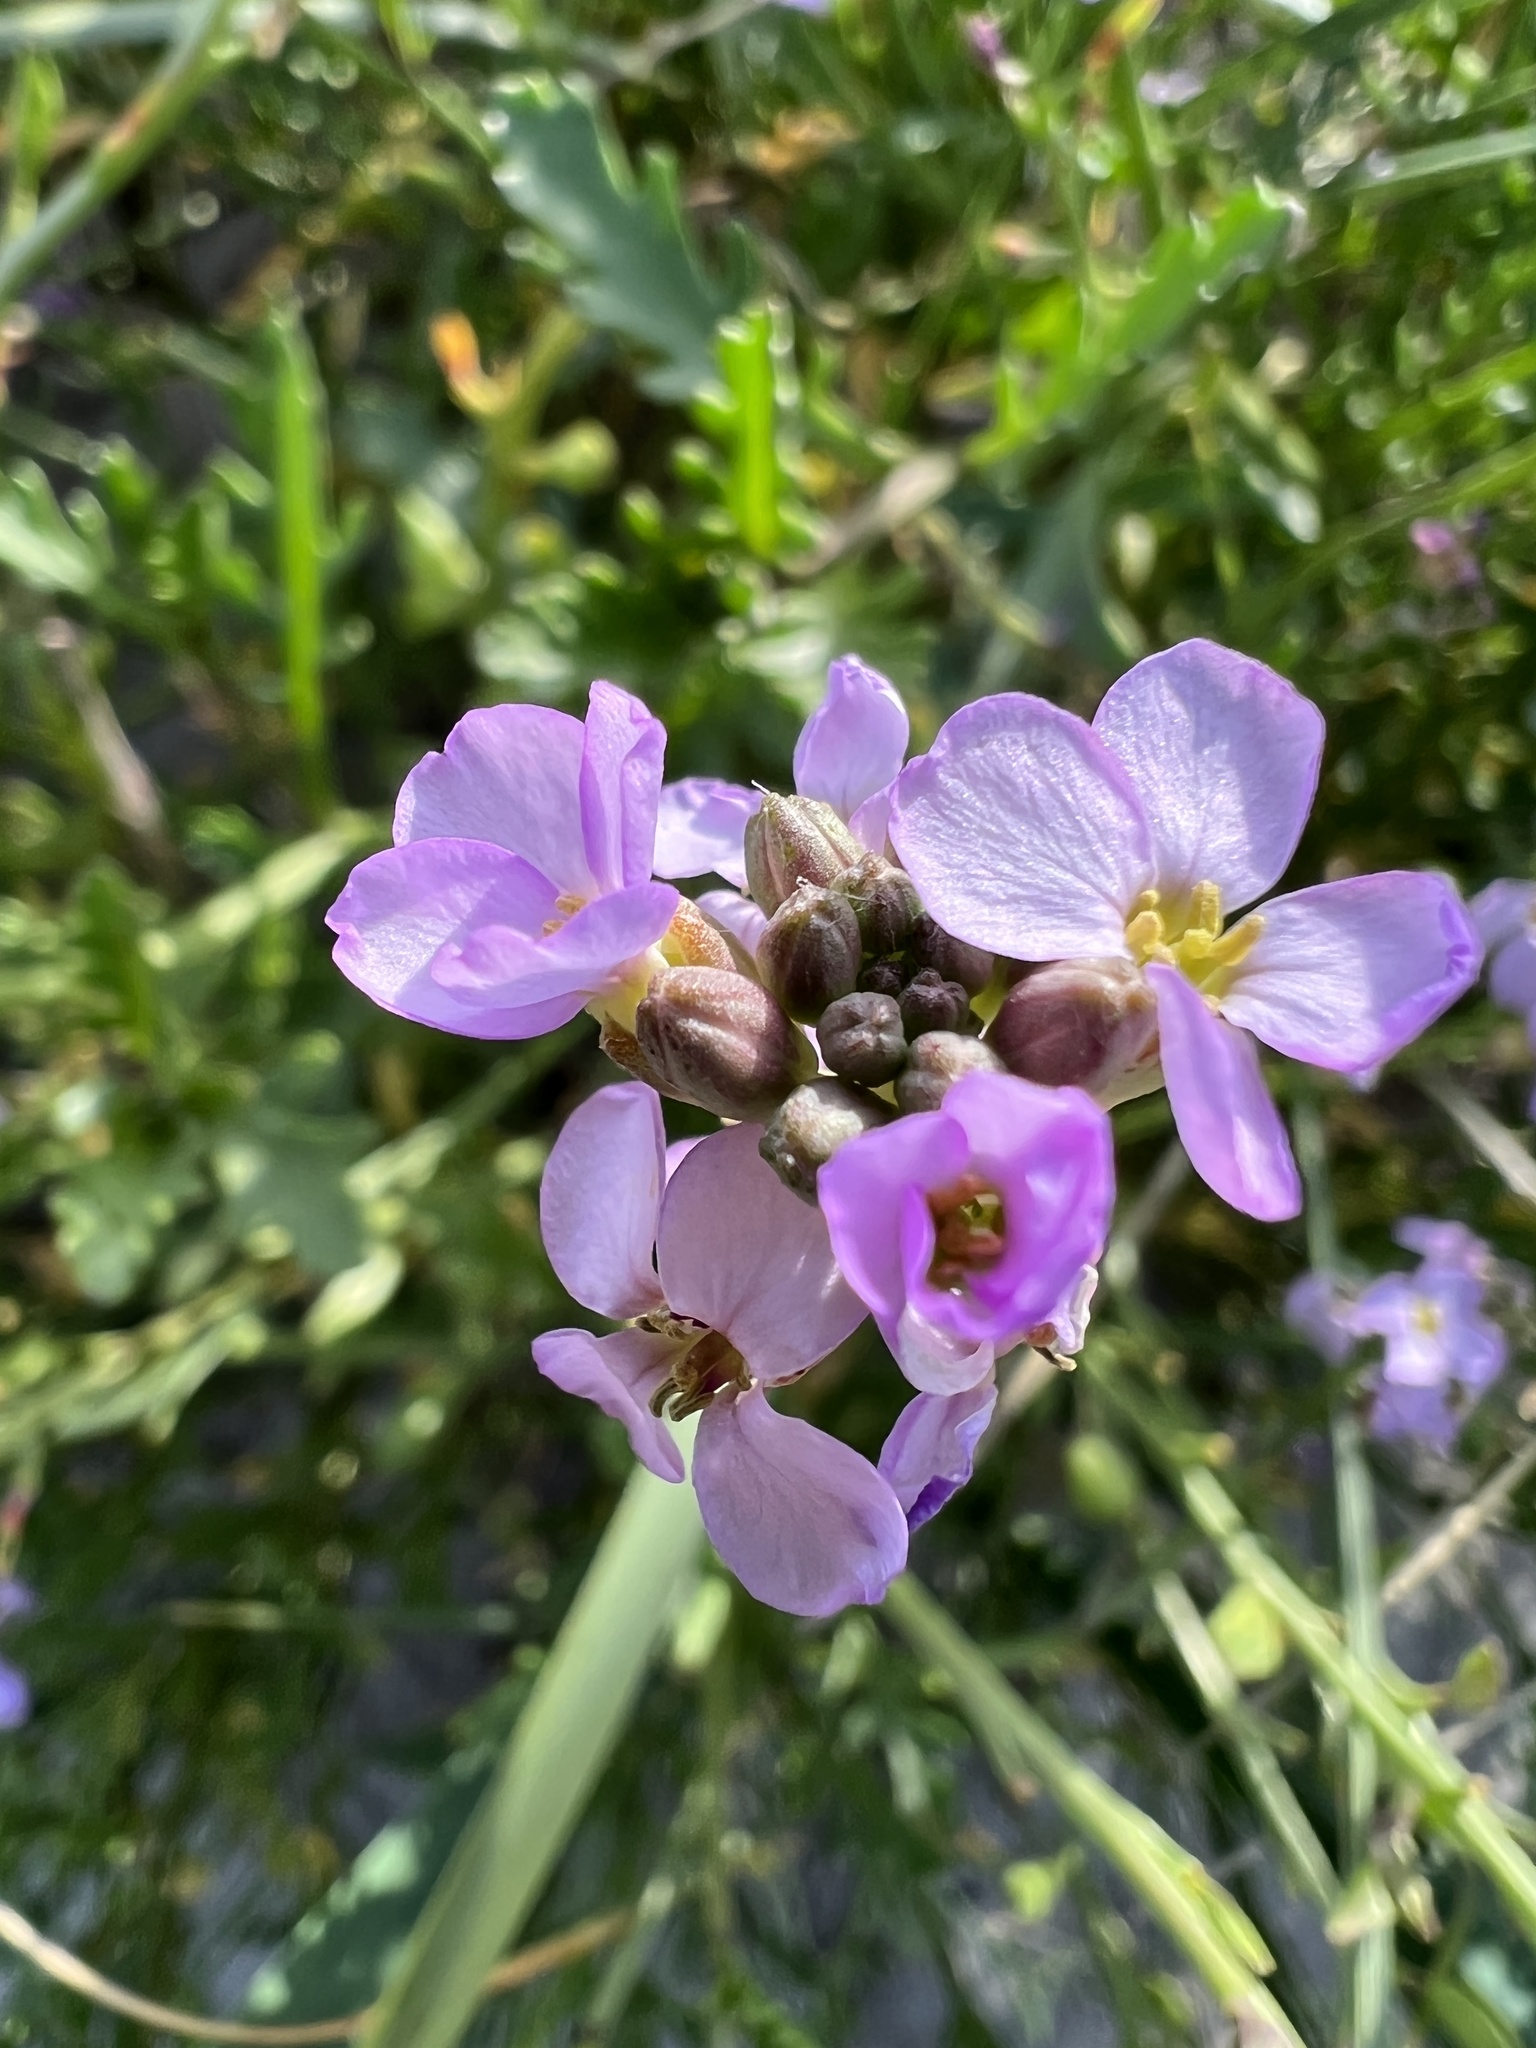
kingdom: Plantae
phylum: Tracheophyta
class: Magnoliopsida
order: Brassicales
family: Brassicaceae
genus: Cakile
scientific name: Cakile maritima
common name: Sea rocket
